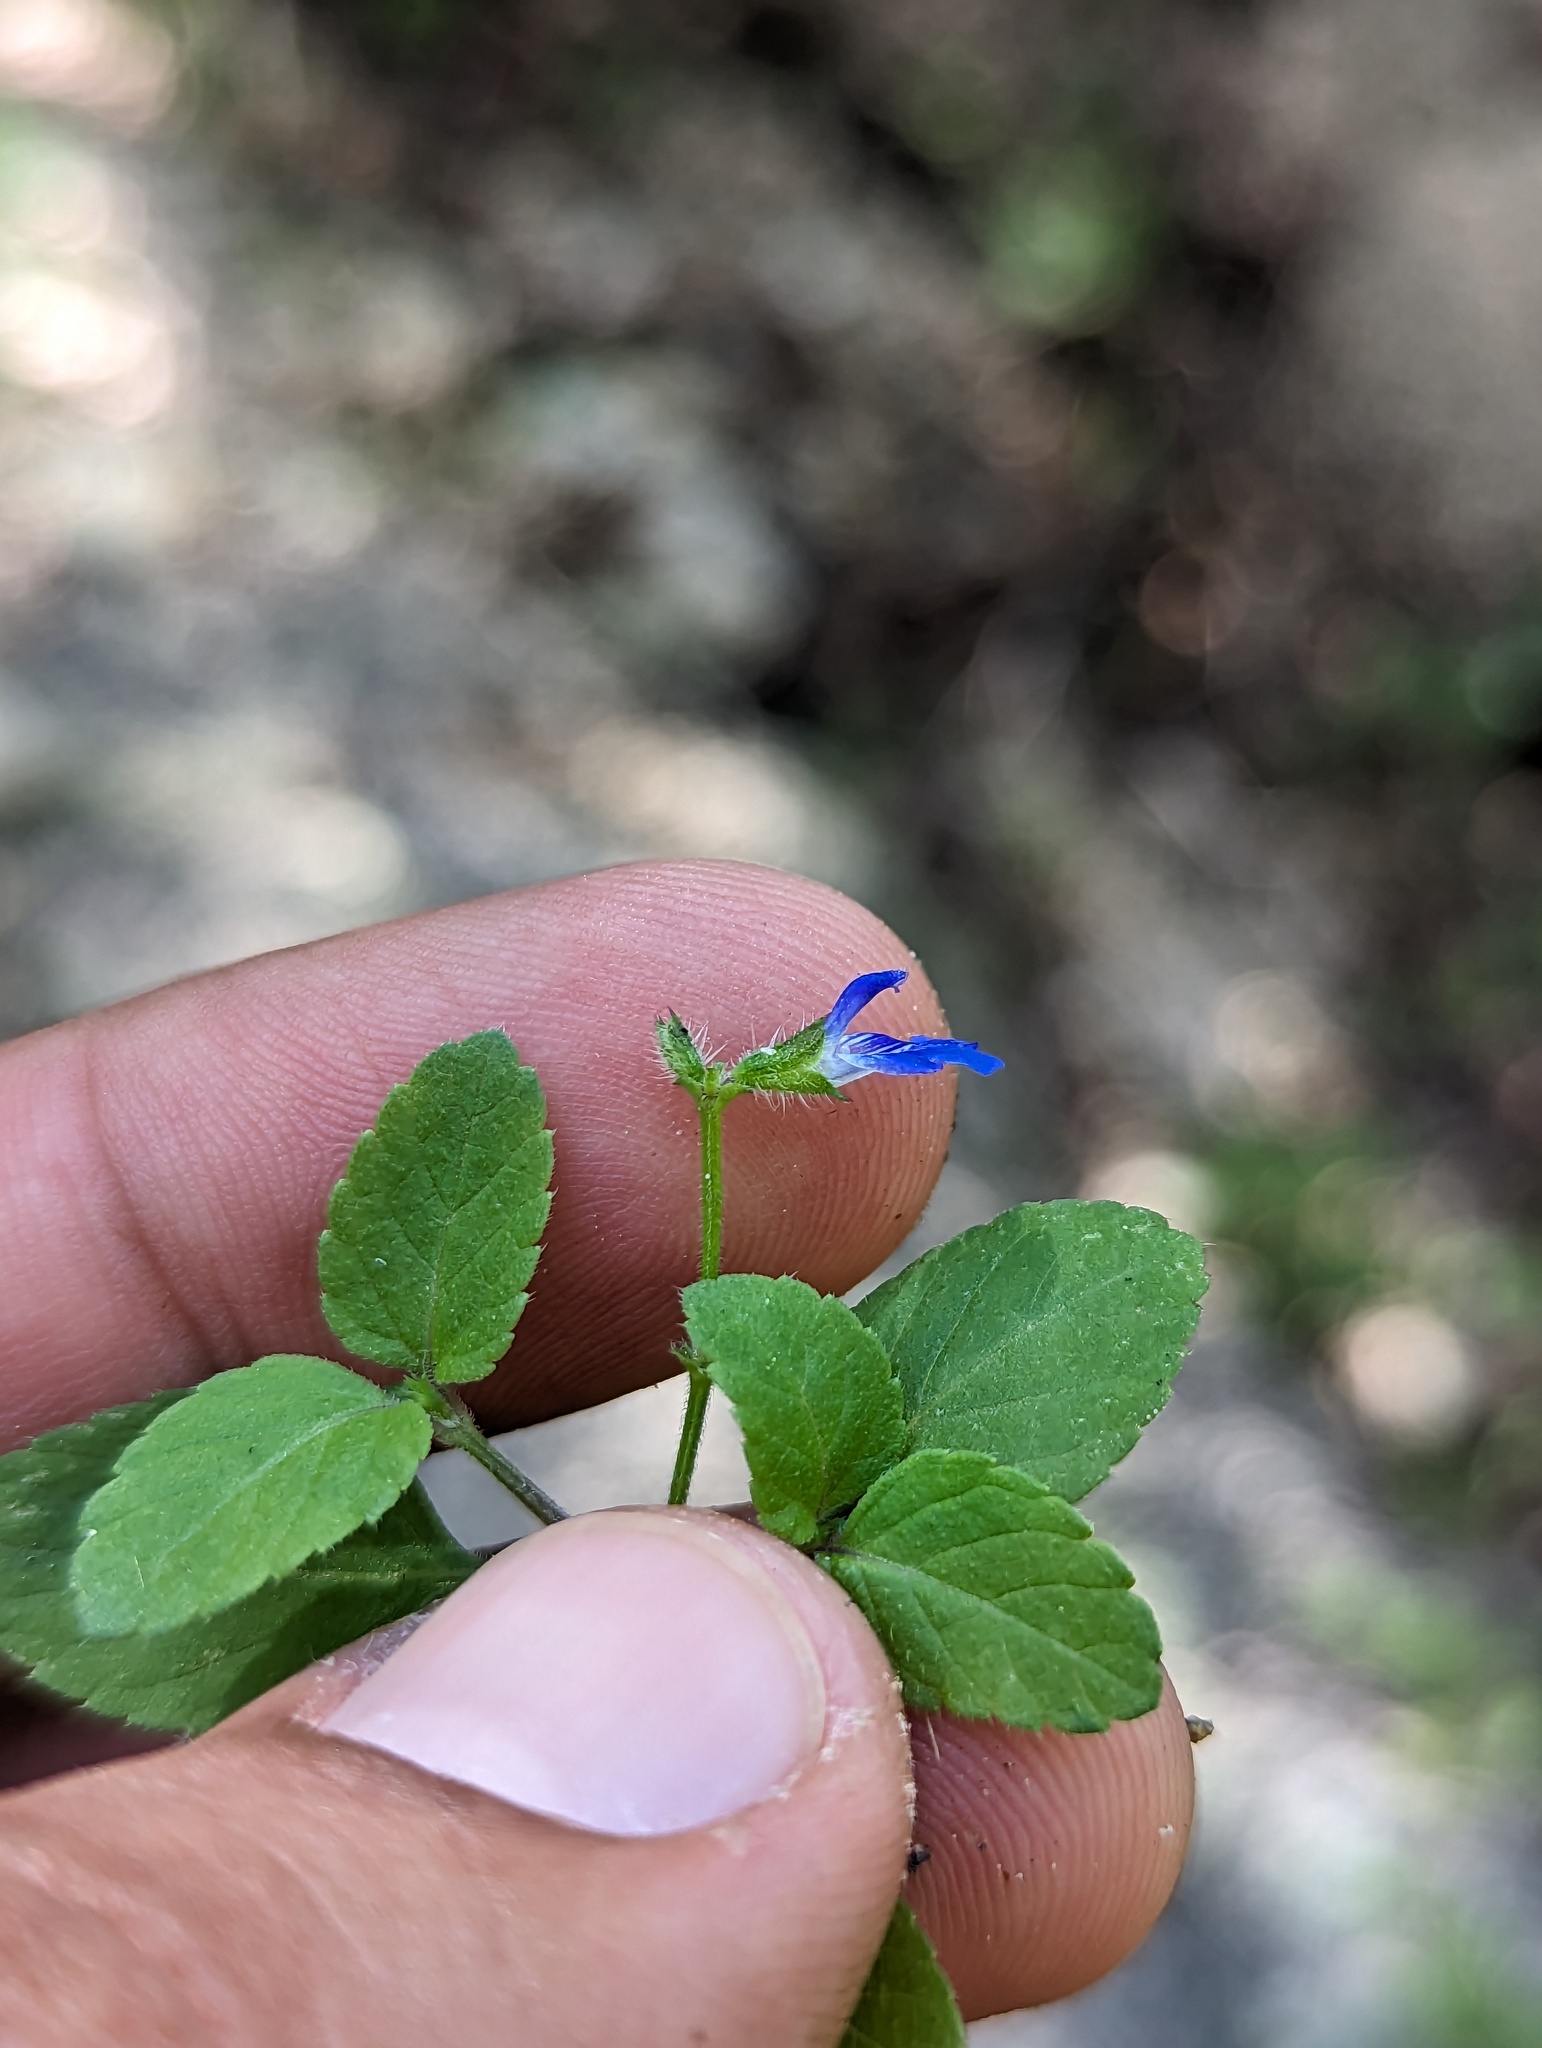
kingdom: Plantae
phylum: Tracheophyta
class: Magnoliopsida
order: Lamiales
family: Lamiaceae
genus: Salvia
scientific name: Salvia misella
